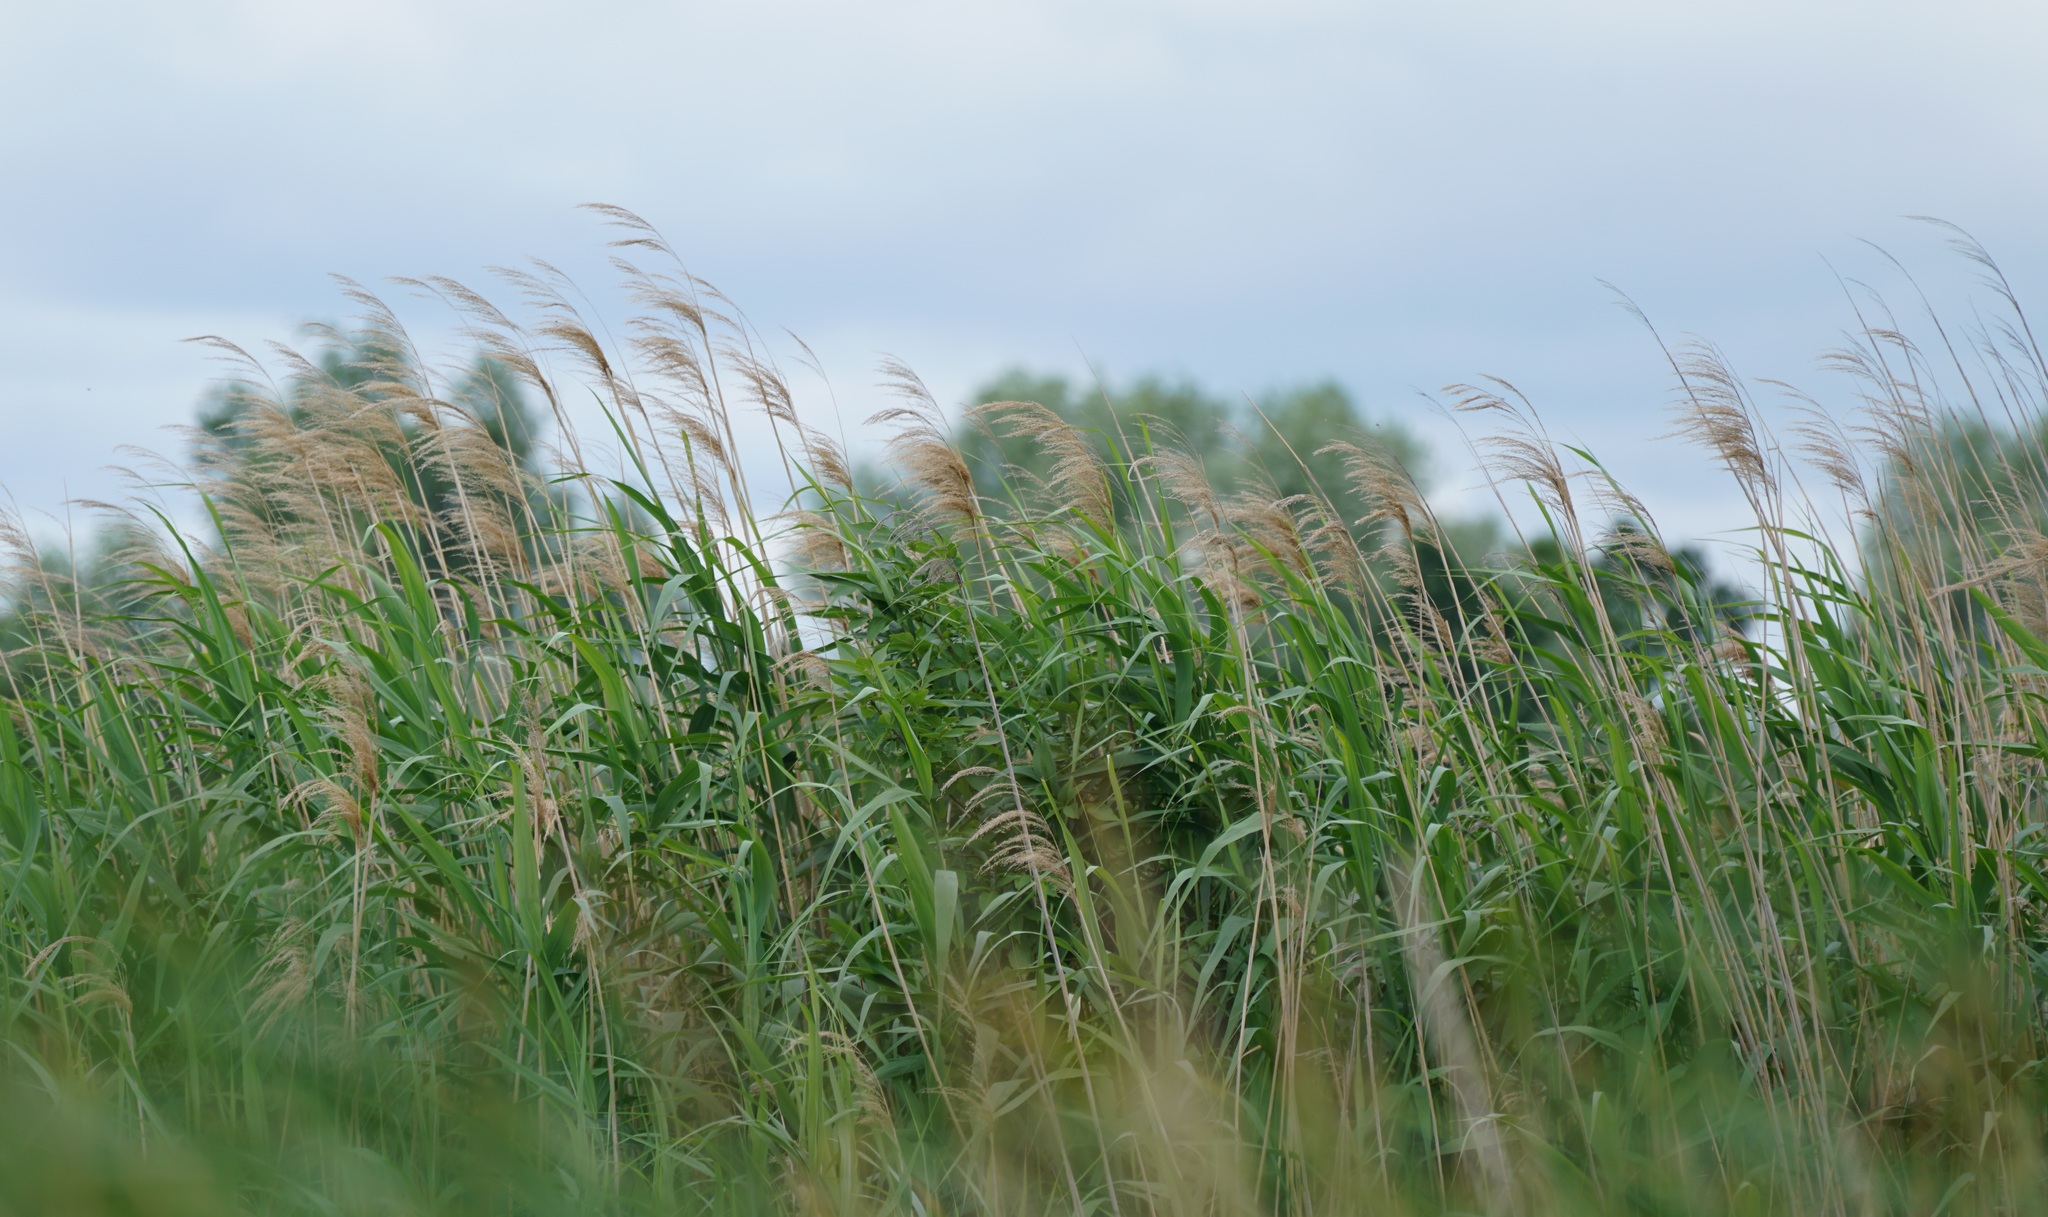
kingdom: Plantae
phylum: Tracheophyta
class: Liliopsida
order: Poales
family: Poaceae
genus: Phragmites
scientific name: Phragmites australis
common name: Common reed
